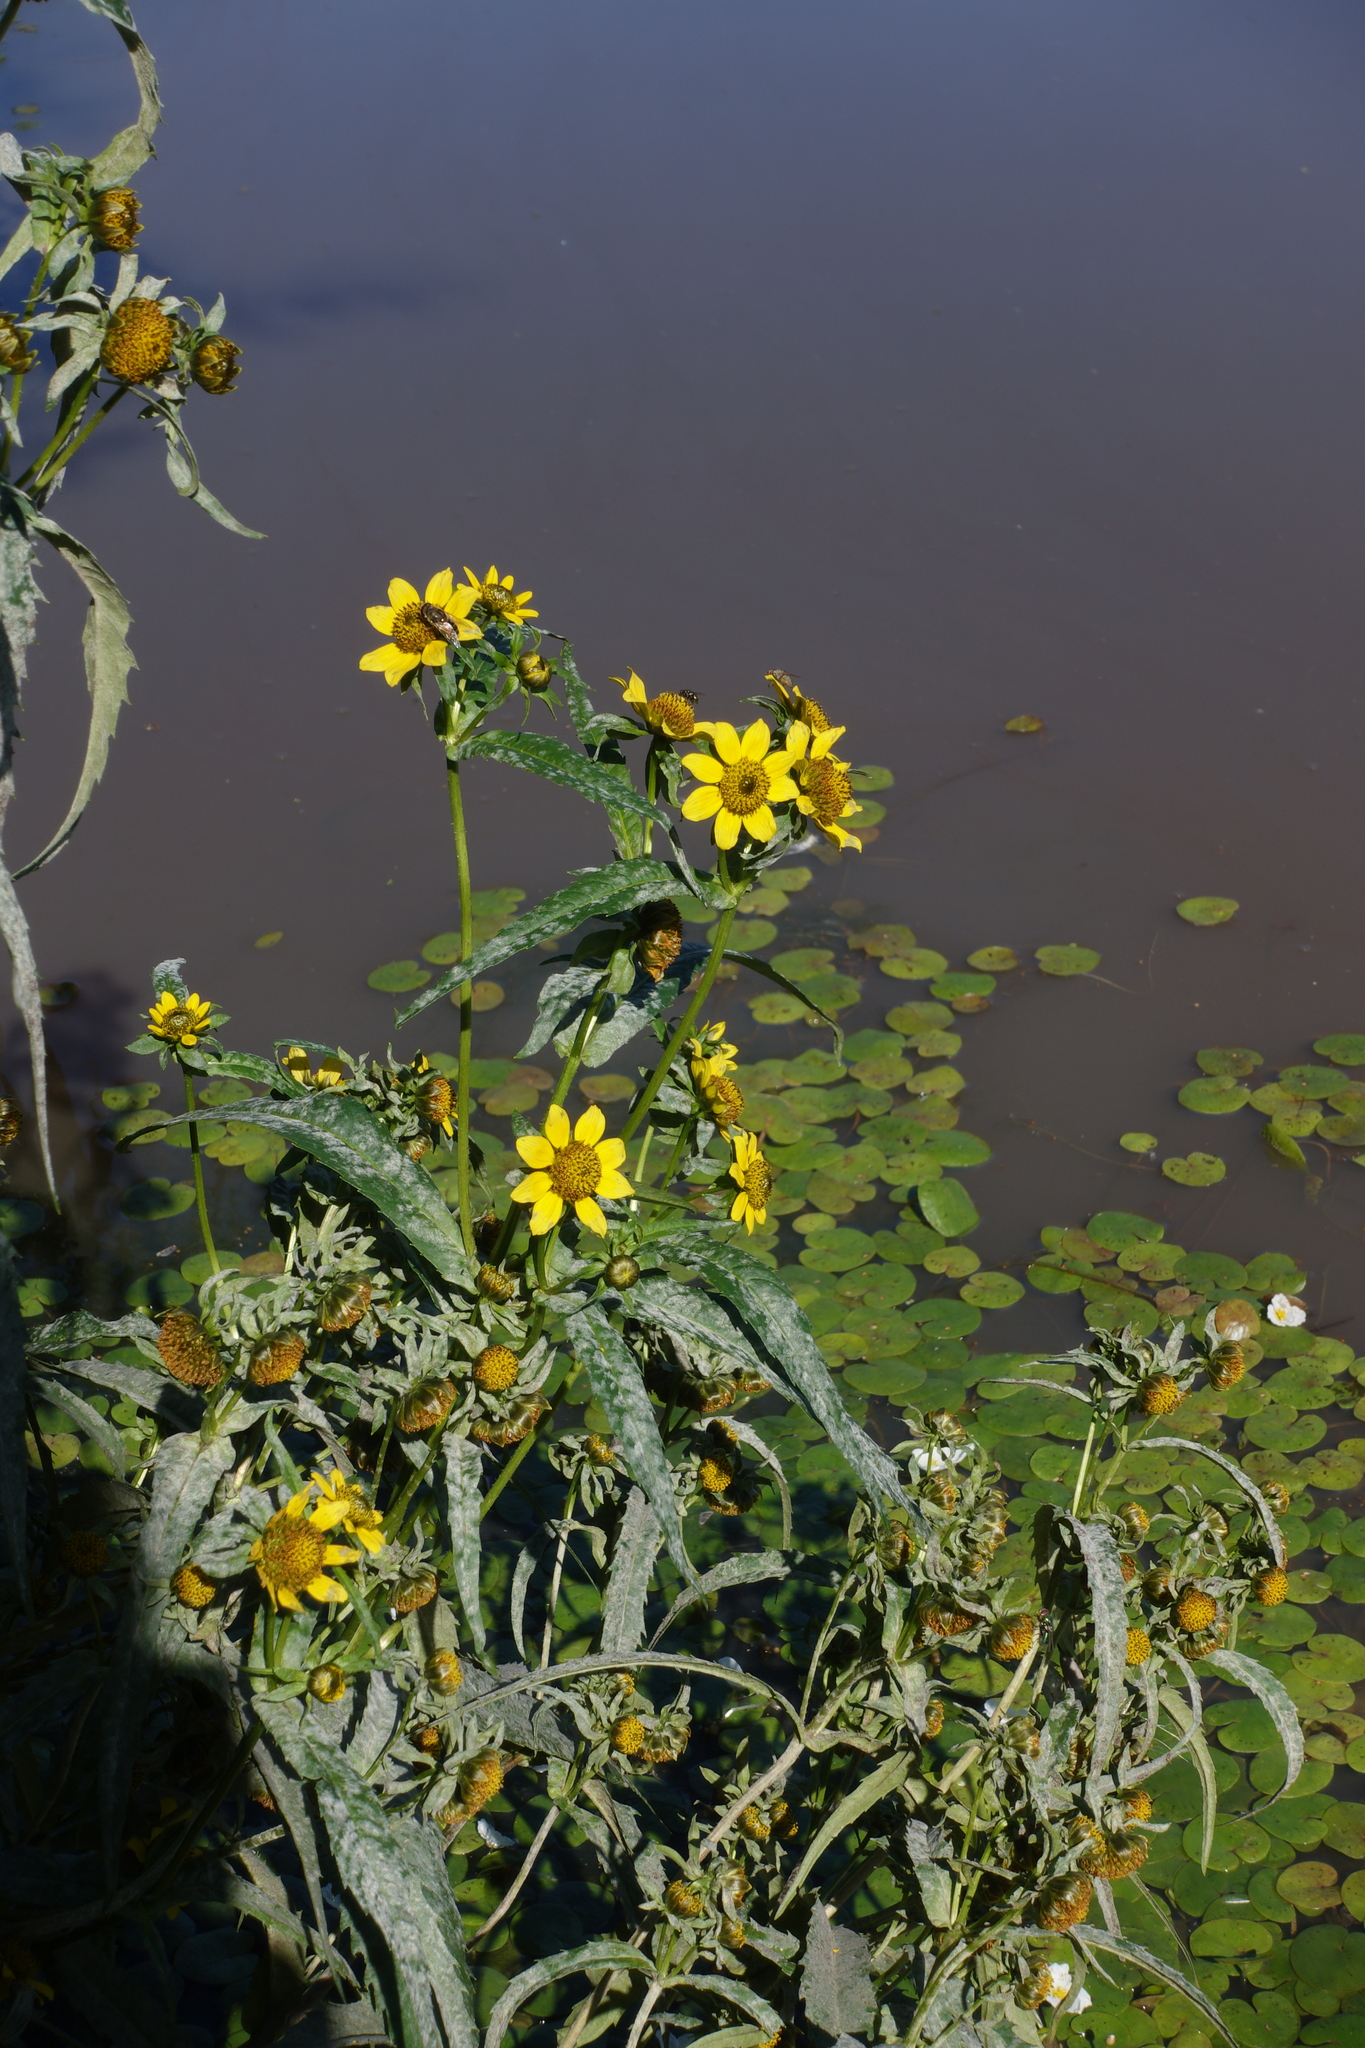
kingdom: Plantae
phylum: Tracheophyta
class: Magnoliopsida
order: Asterales
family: Asteraceae
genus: Bidens
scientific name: Bidens cernua
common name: Nodding bur-marigold
